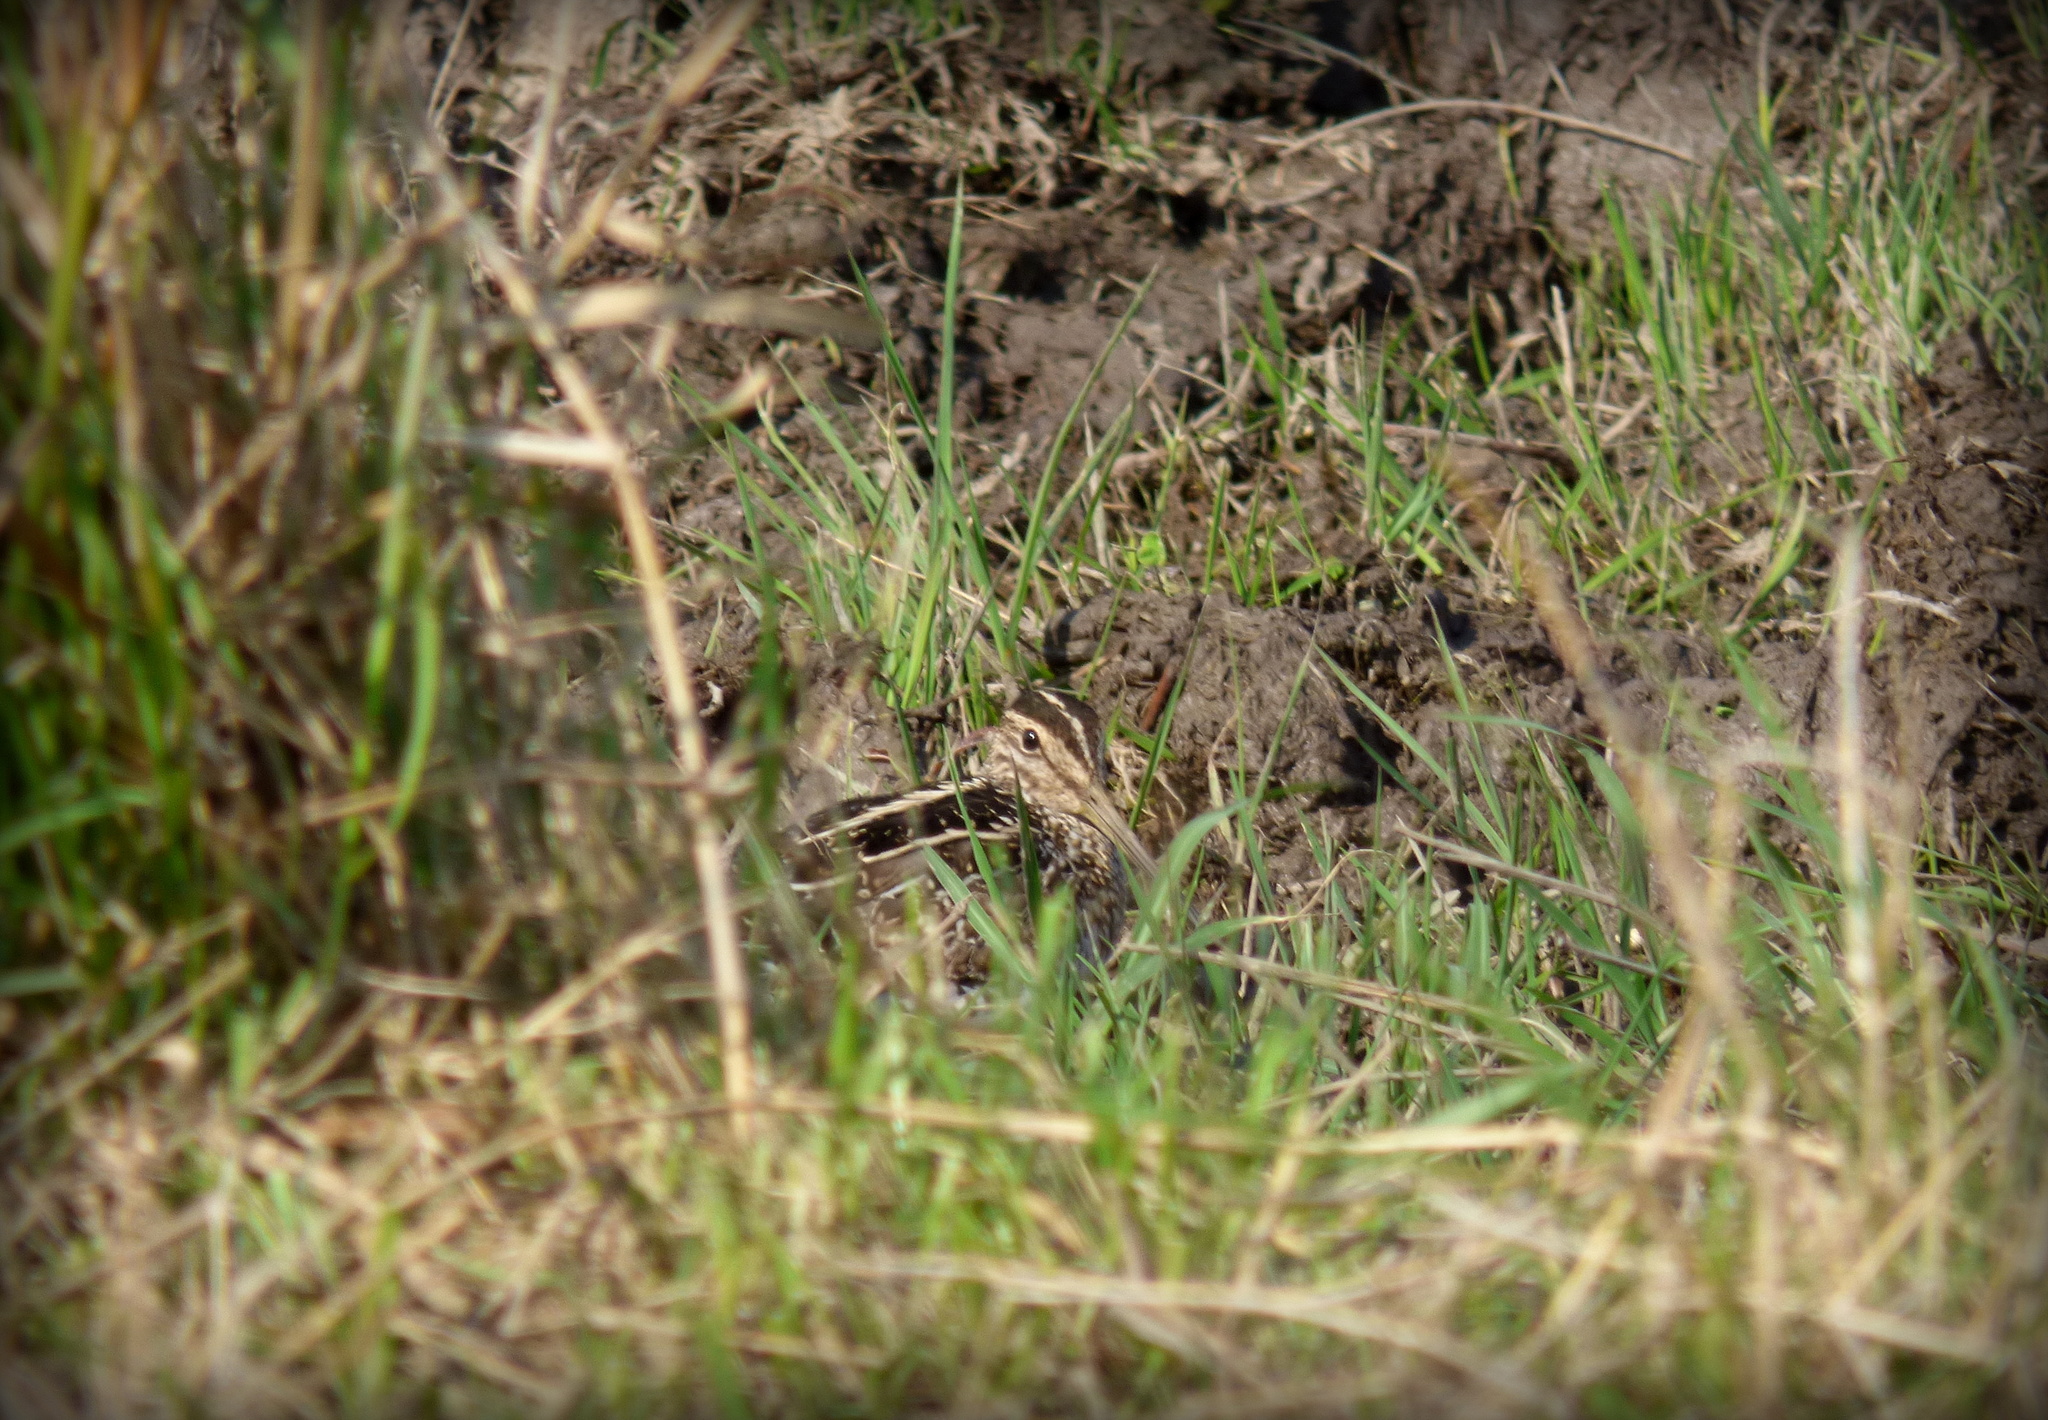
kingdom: Animalia
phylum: Chordata
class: Aves
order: Charadriiformes
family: Scolopacidae
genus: Gallinago
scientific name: Gallinago paraguaiae
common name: South american snipe
